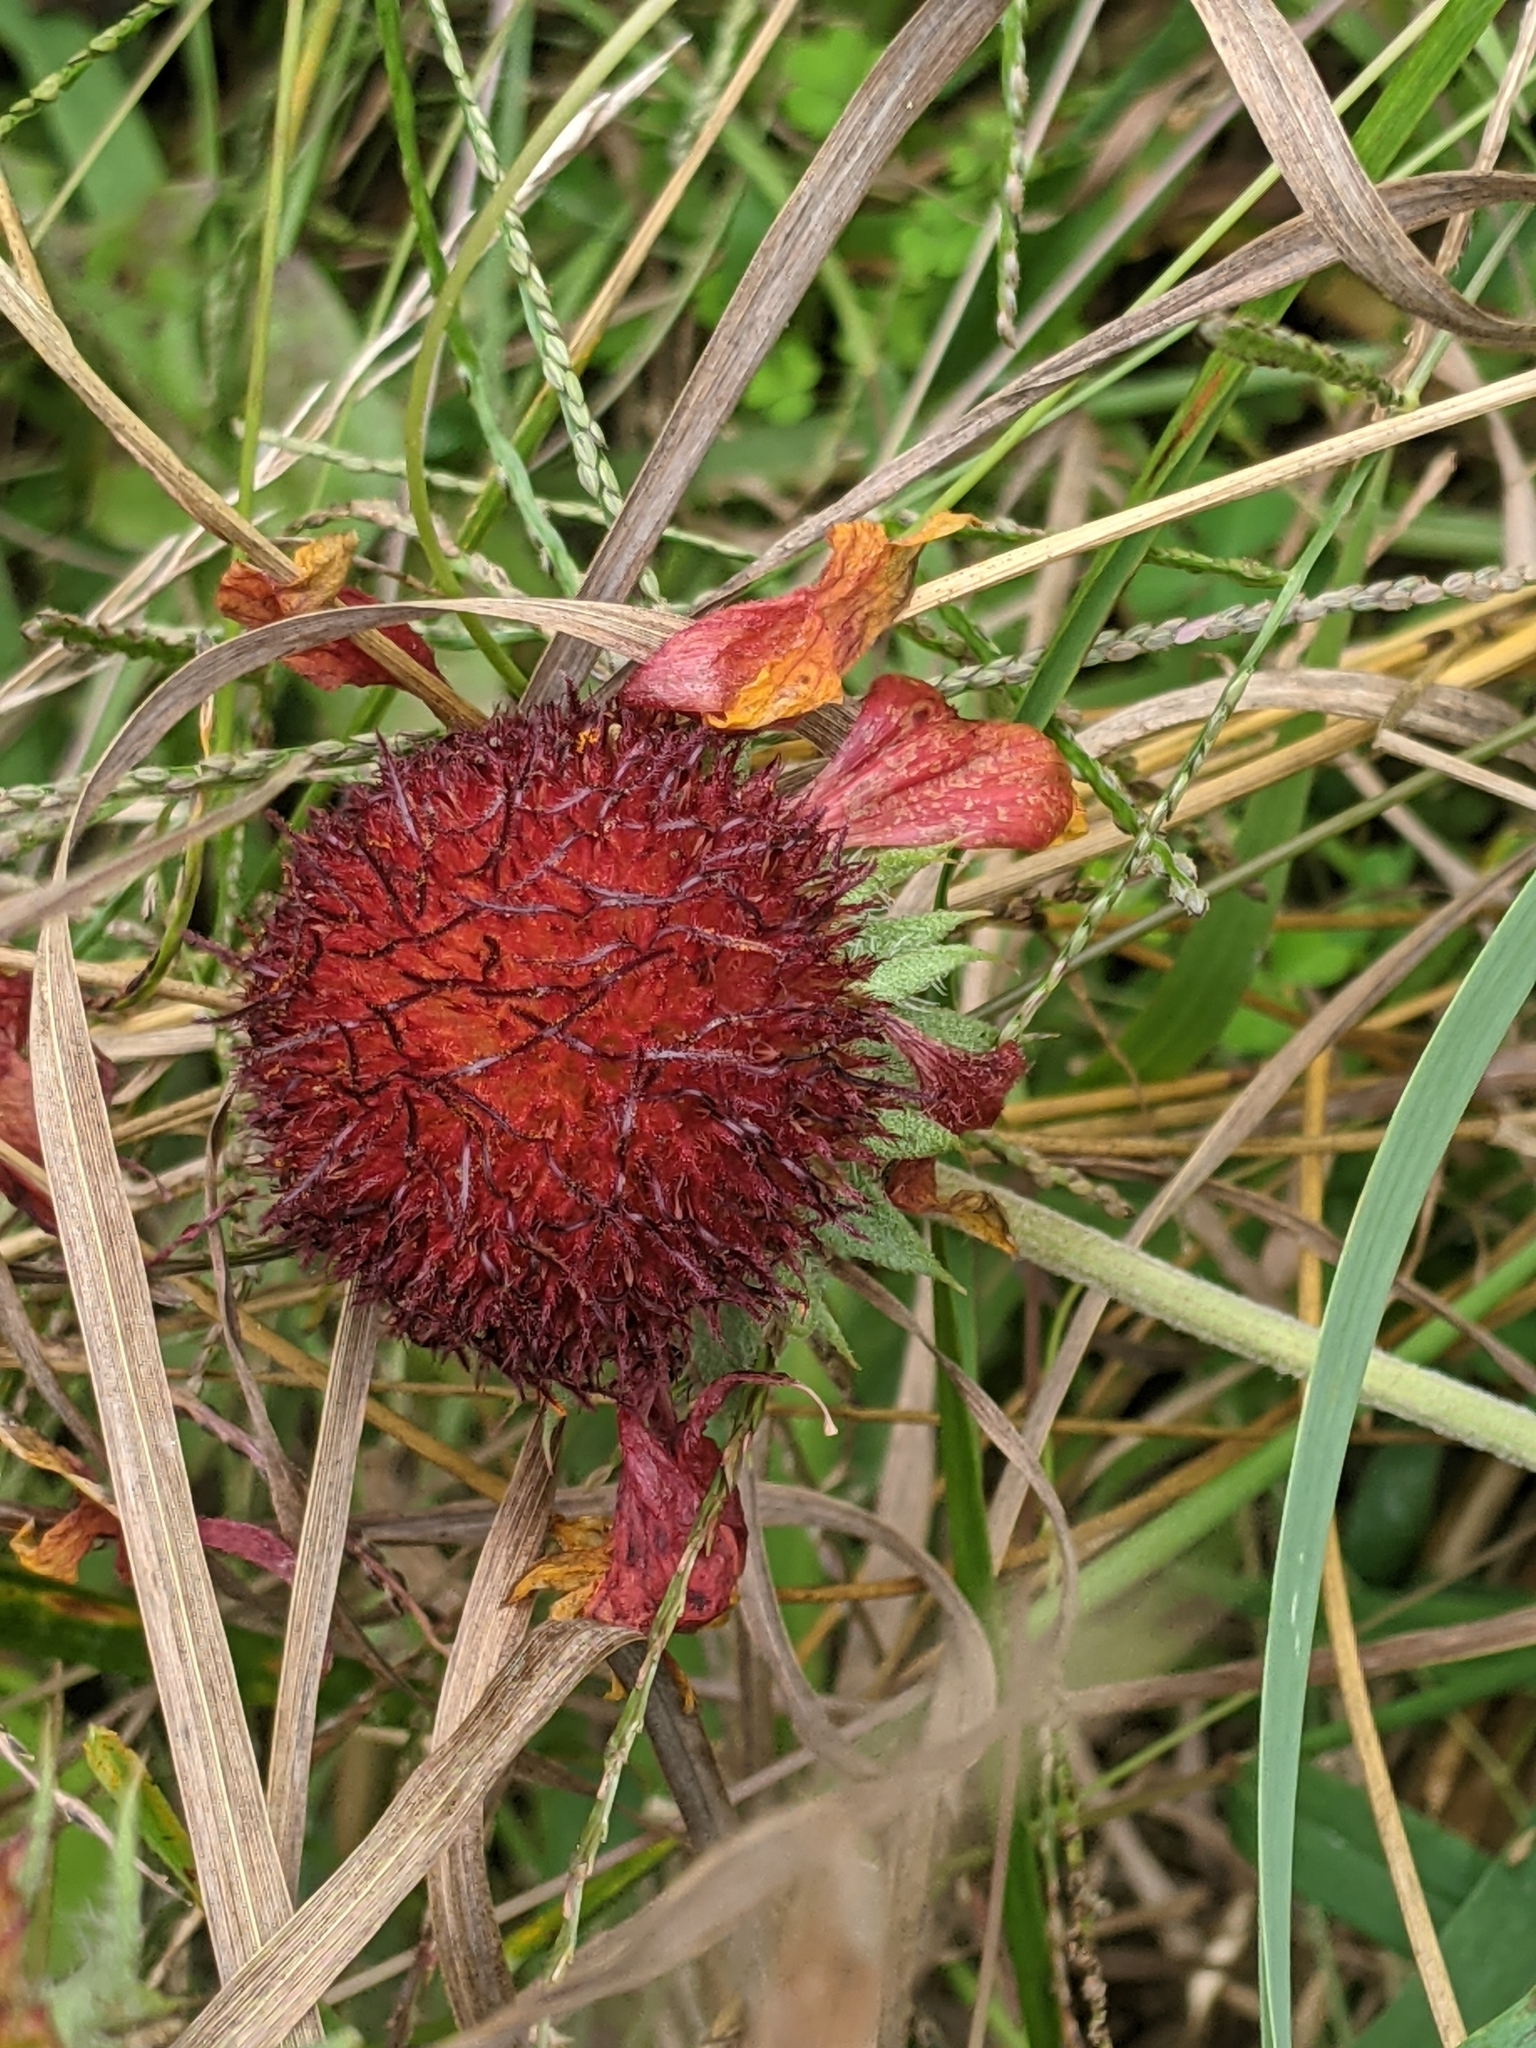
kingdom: Plantae
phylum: Tracheophyta
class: Magnoliopsida
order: Asterales
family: Asteraceae
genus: Gaillardia
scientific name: Gaillardia pulchella
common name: Firewheel
